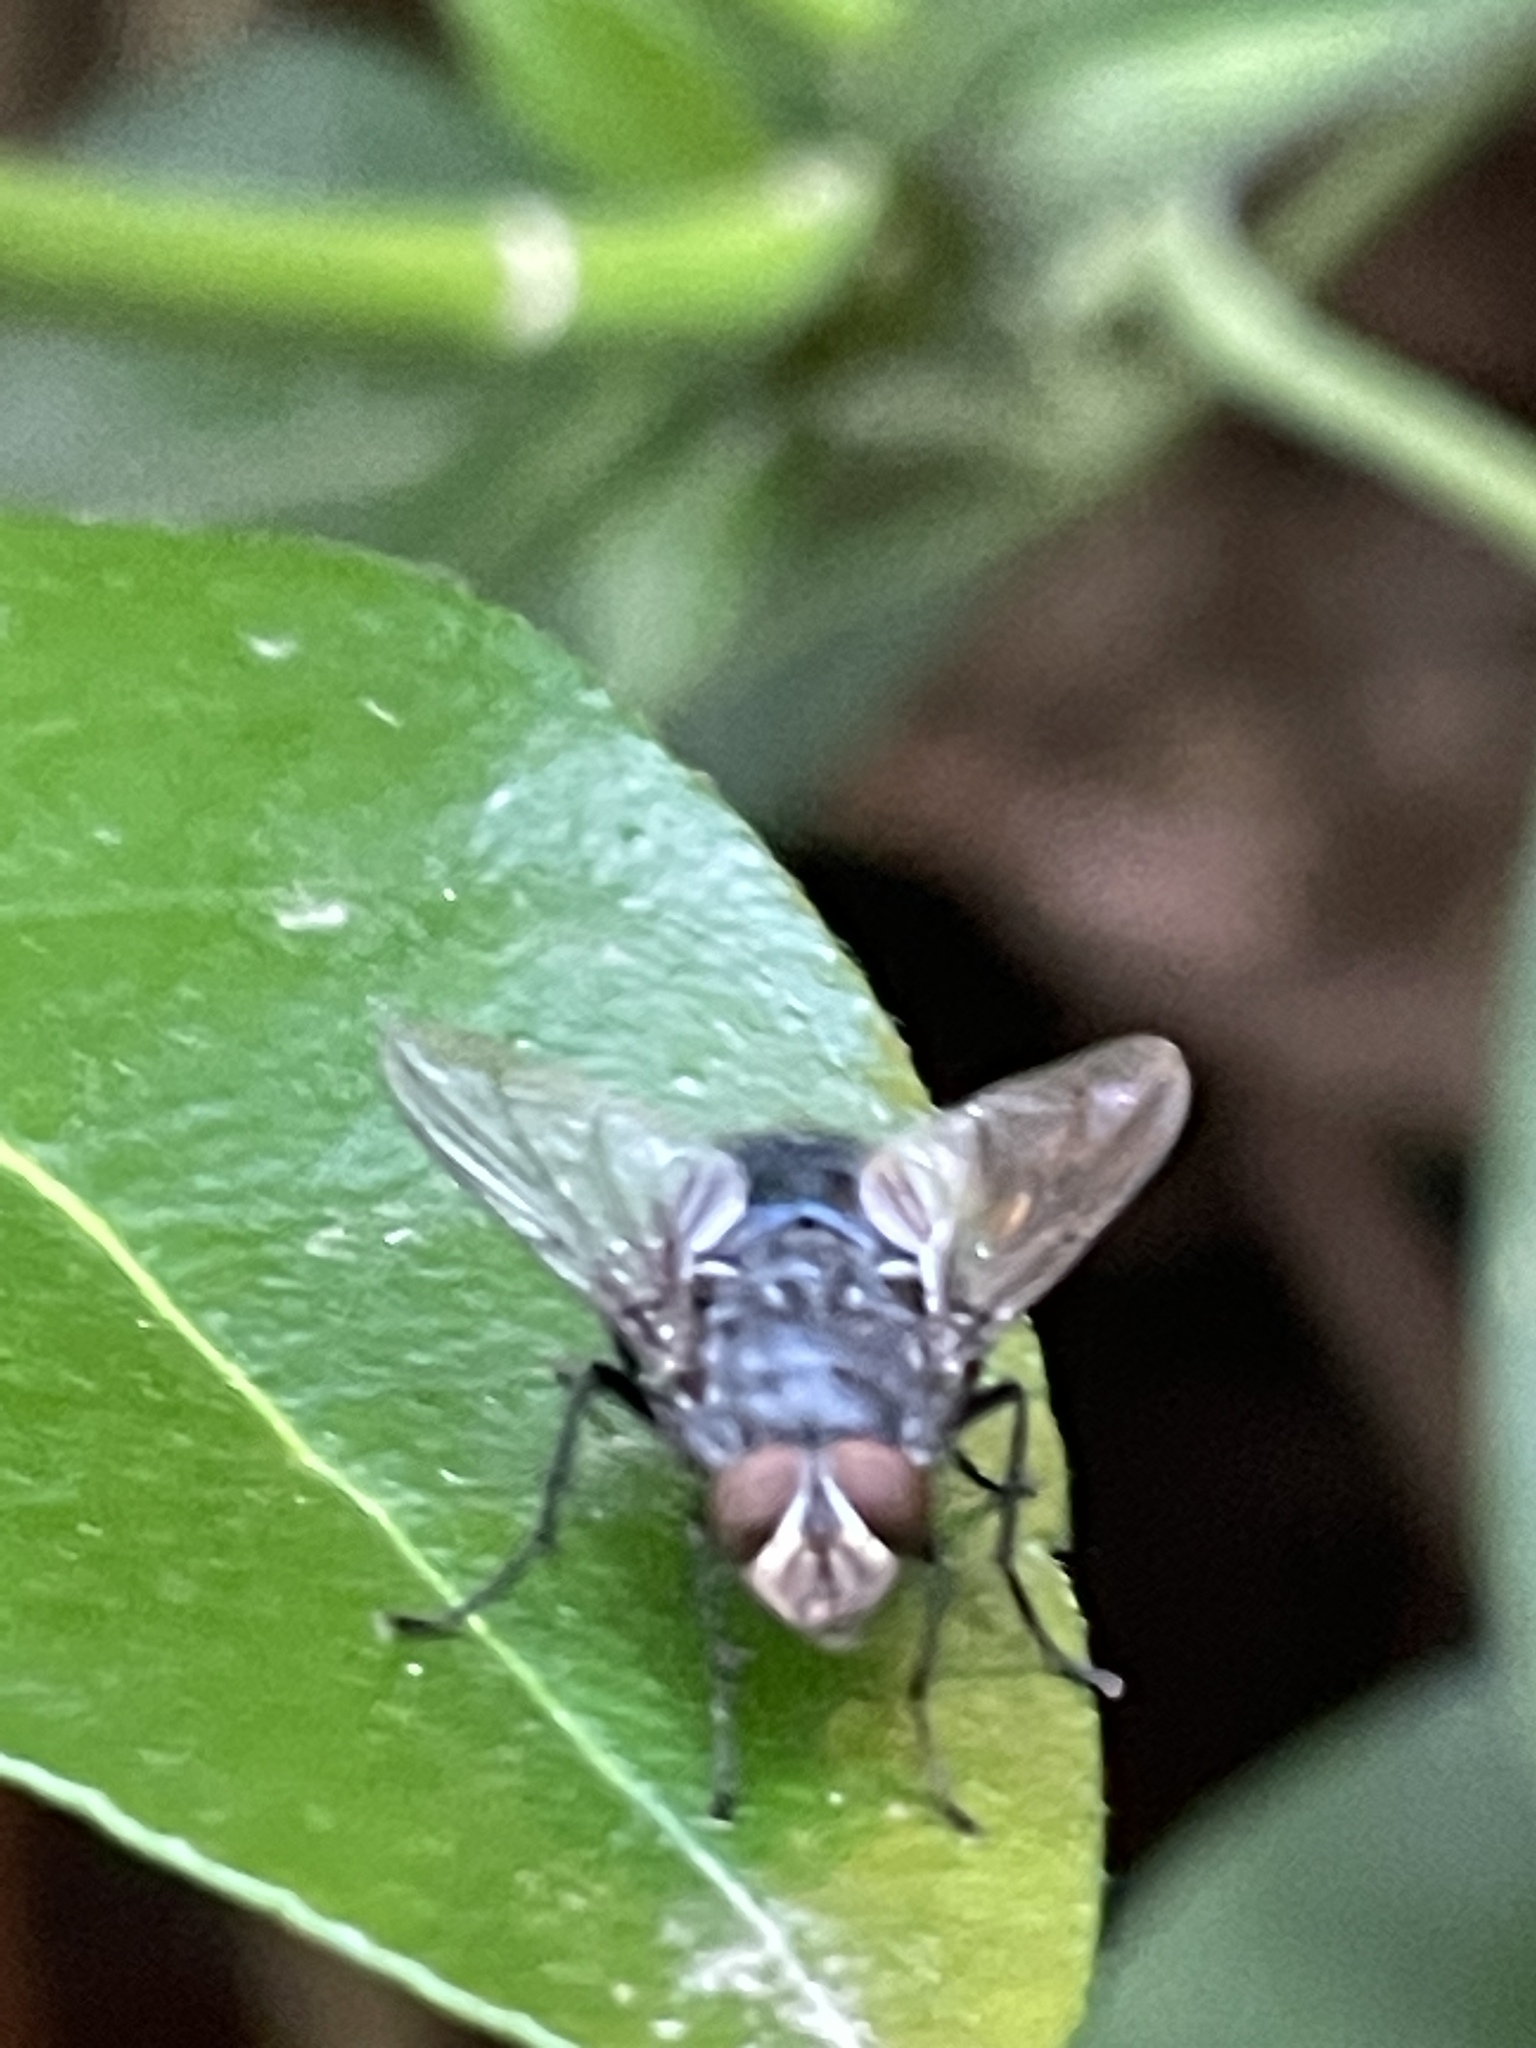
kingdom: Animalia
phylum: Arthropoda
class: Insecta
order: Diptera
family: Calliphoridae
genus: Calliphora
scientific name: Calliphora vicina
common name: Common blow flie
